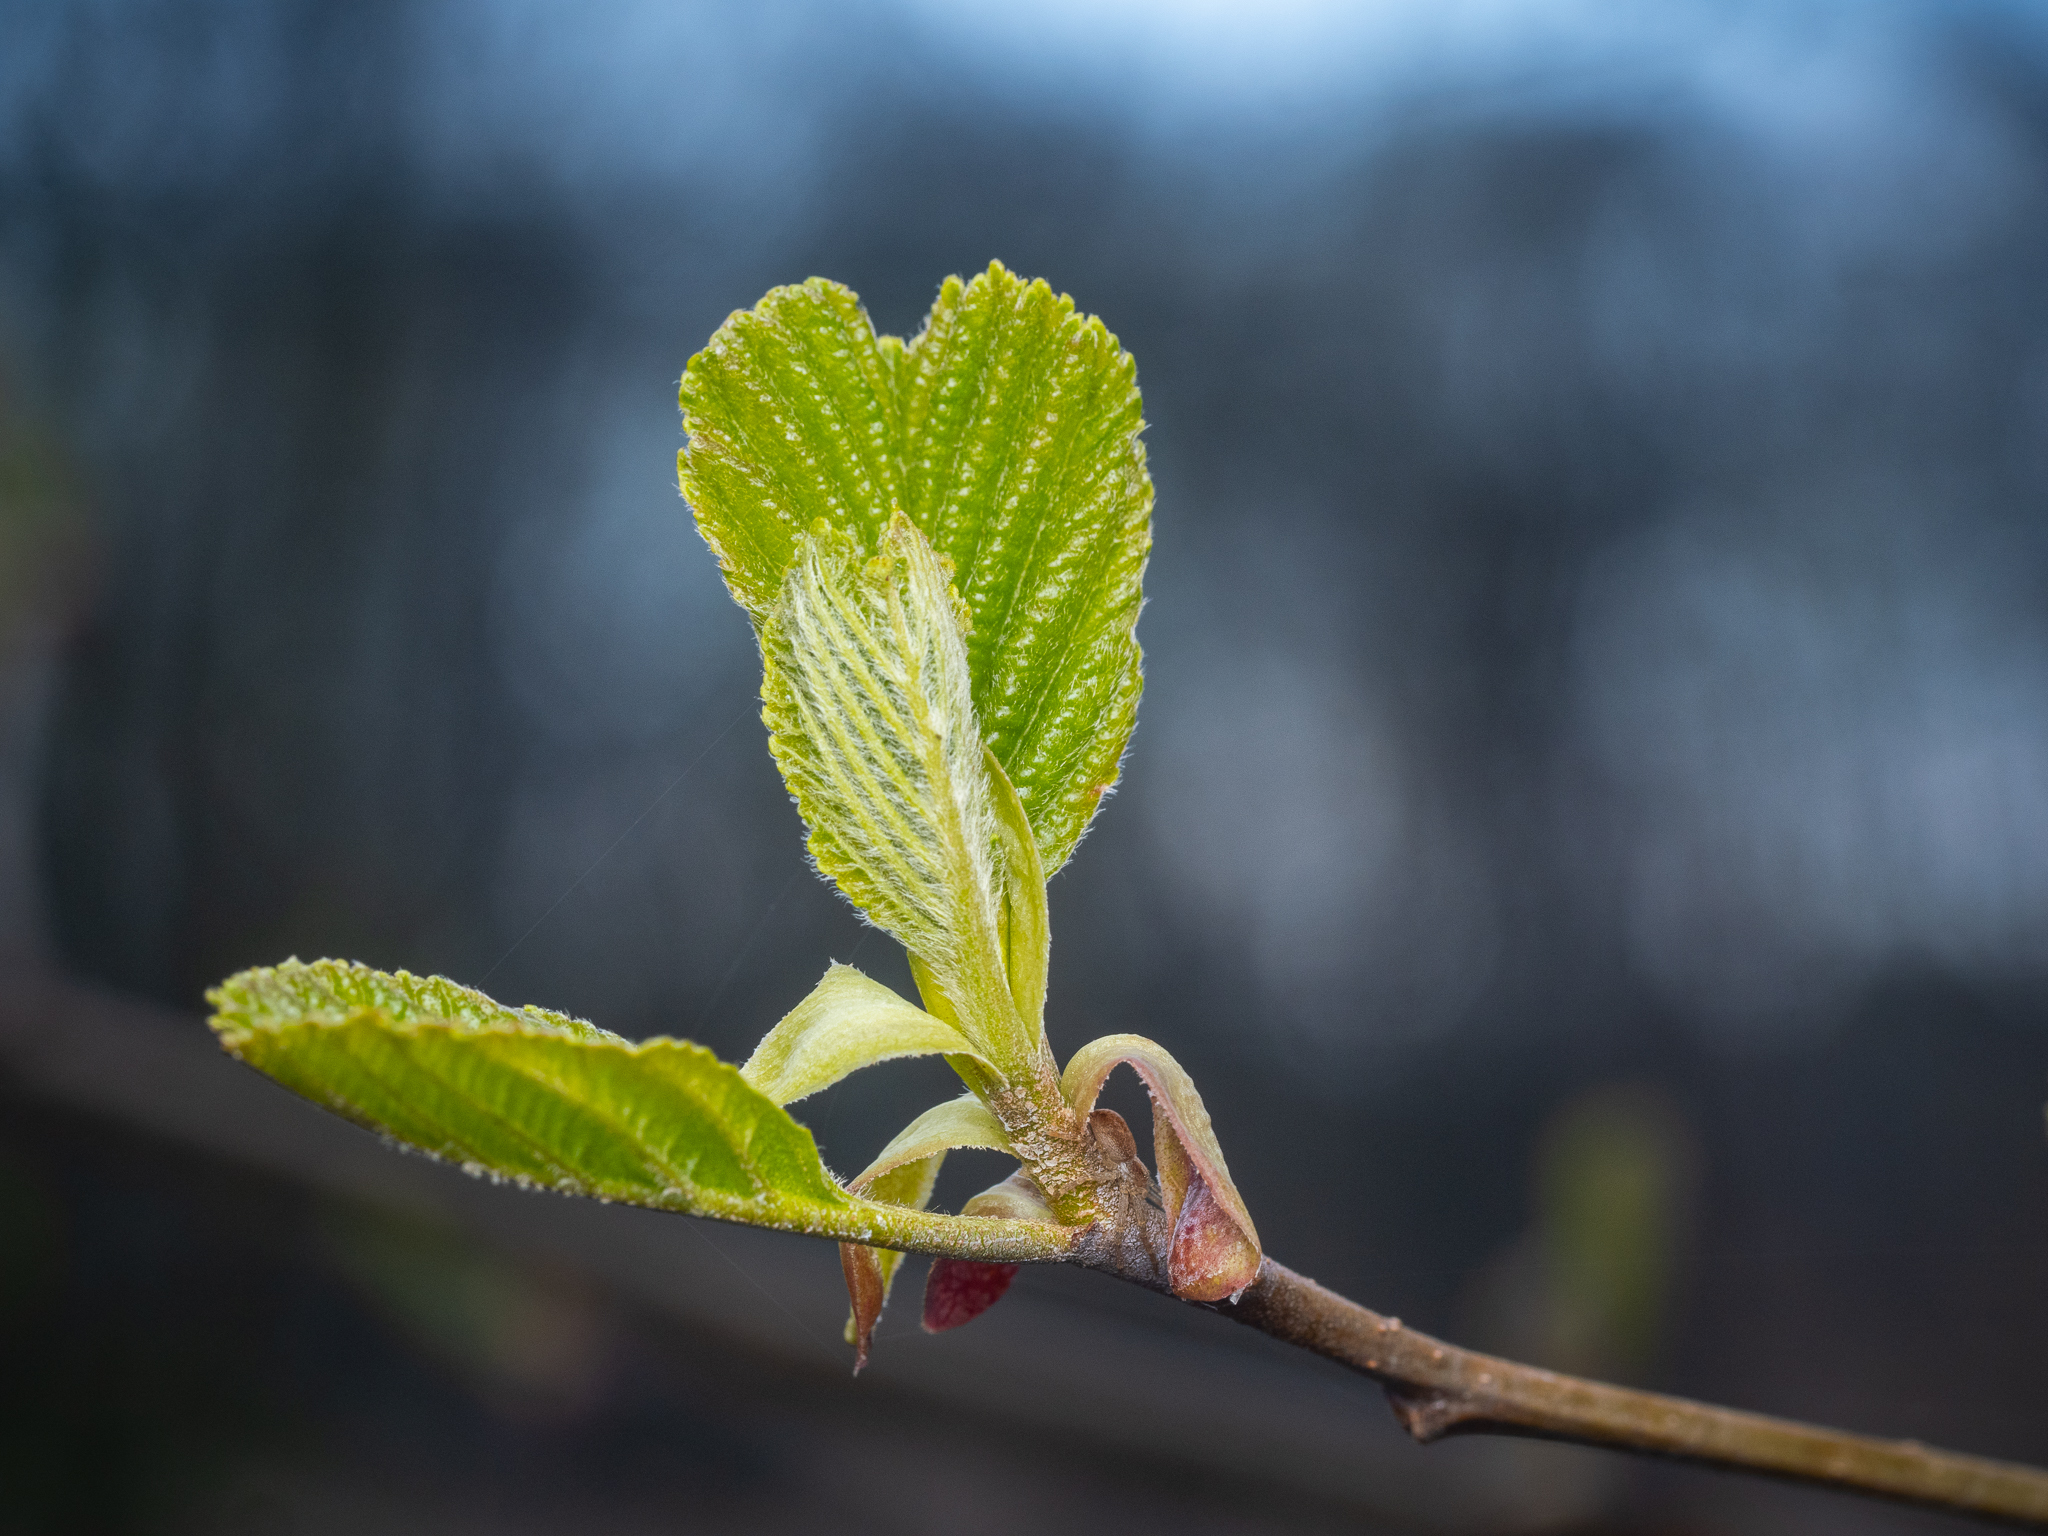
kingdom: Plantae
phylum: Tracheophyta
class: Magnoliopsida
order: Fagales
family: Betulaceae
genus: Alnus
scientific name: Alnus glutinosa
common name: Black alder
